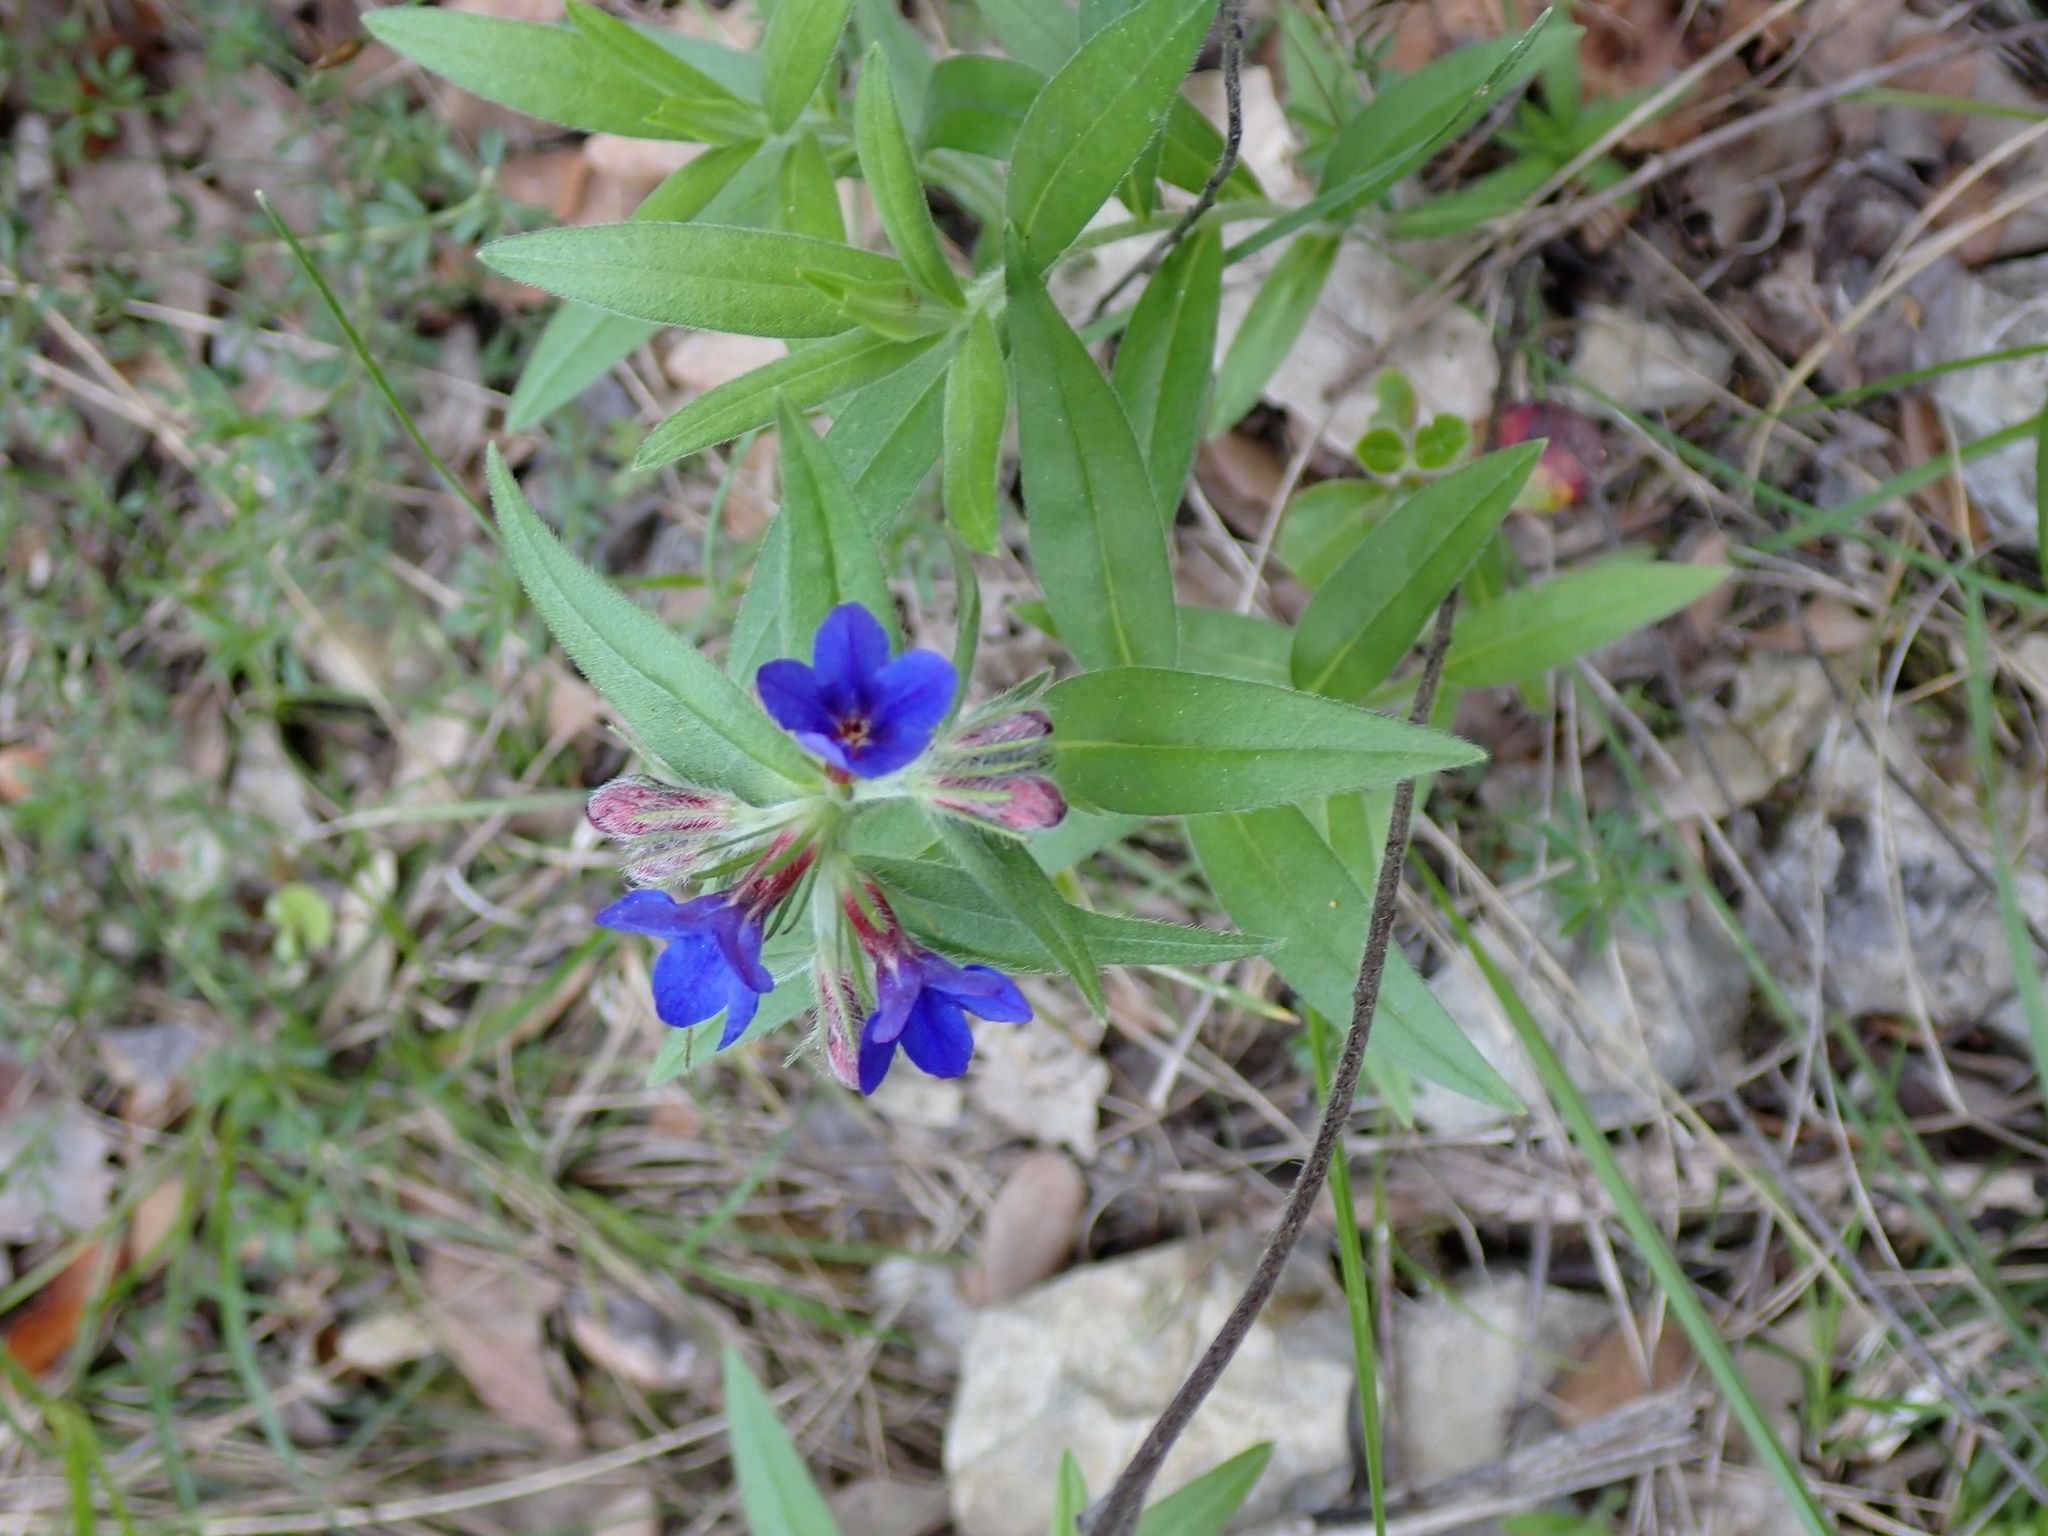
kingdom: Plantae
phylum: Tracheophyta
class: Magnoliopsida
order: Boraginales
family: Boraginaceae
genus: Aegonychon
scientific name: Aegonychon purpurocaeruleum
